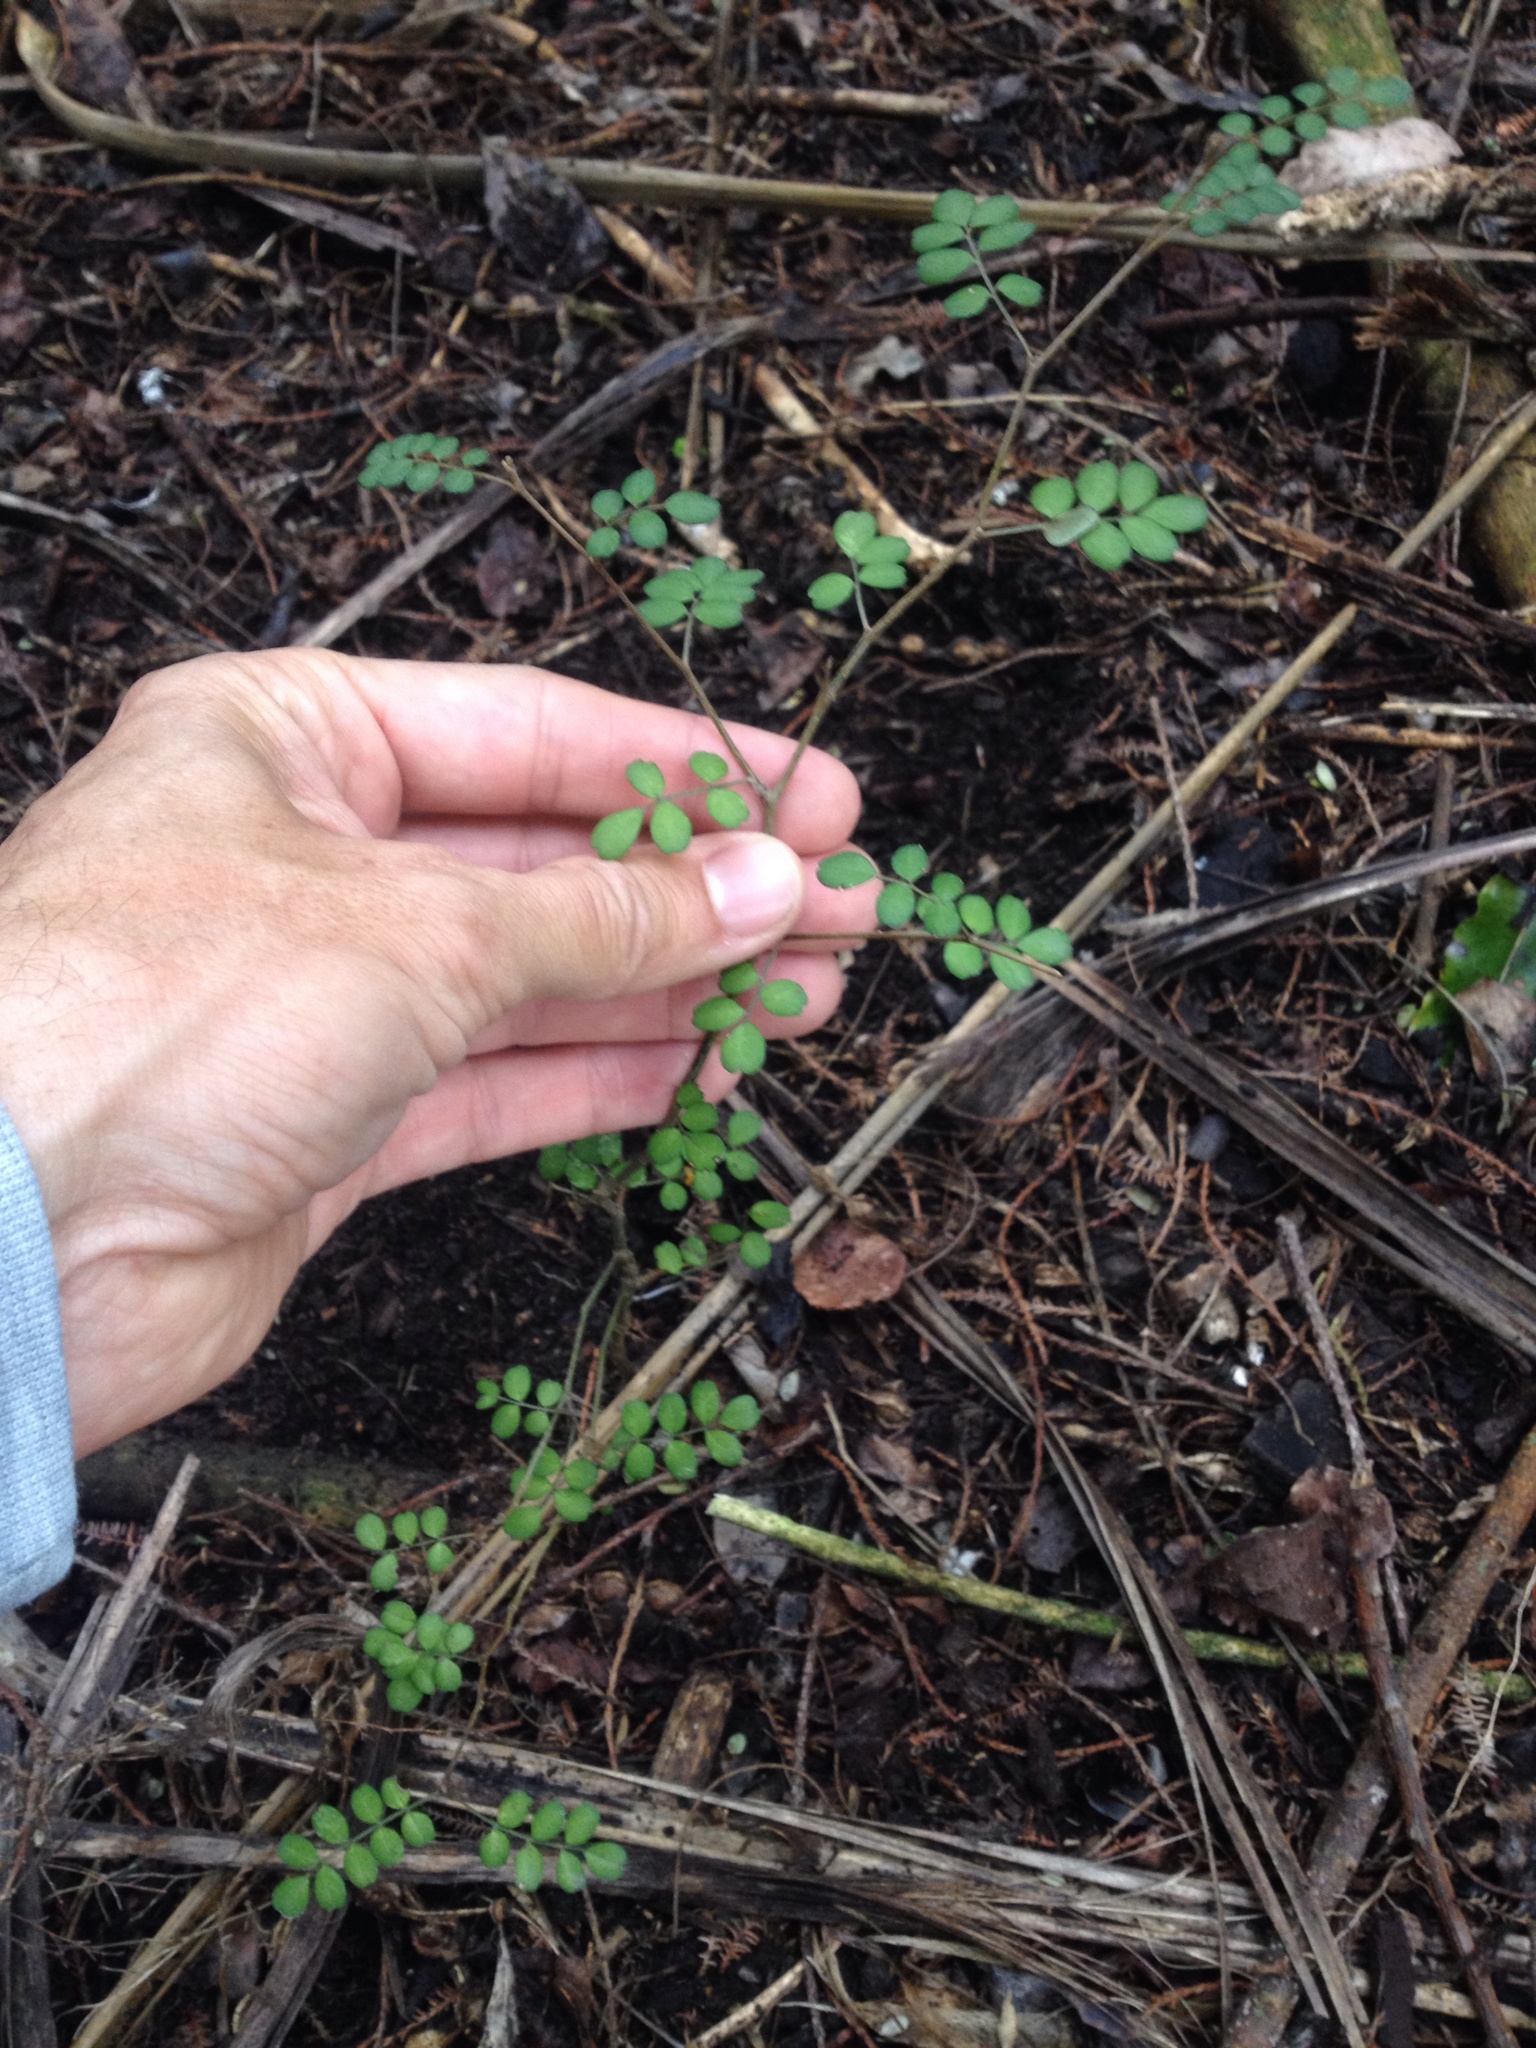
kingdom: Plantae
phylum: Tracheophyta
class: Magnoliopsida
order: Fabales
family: Fabaceae
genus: Sophora
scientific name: Sophora microphylla
